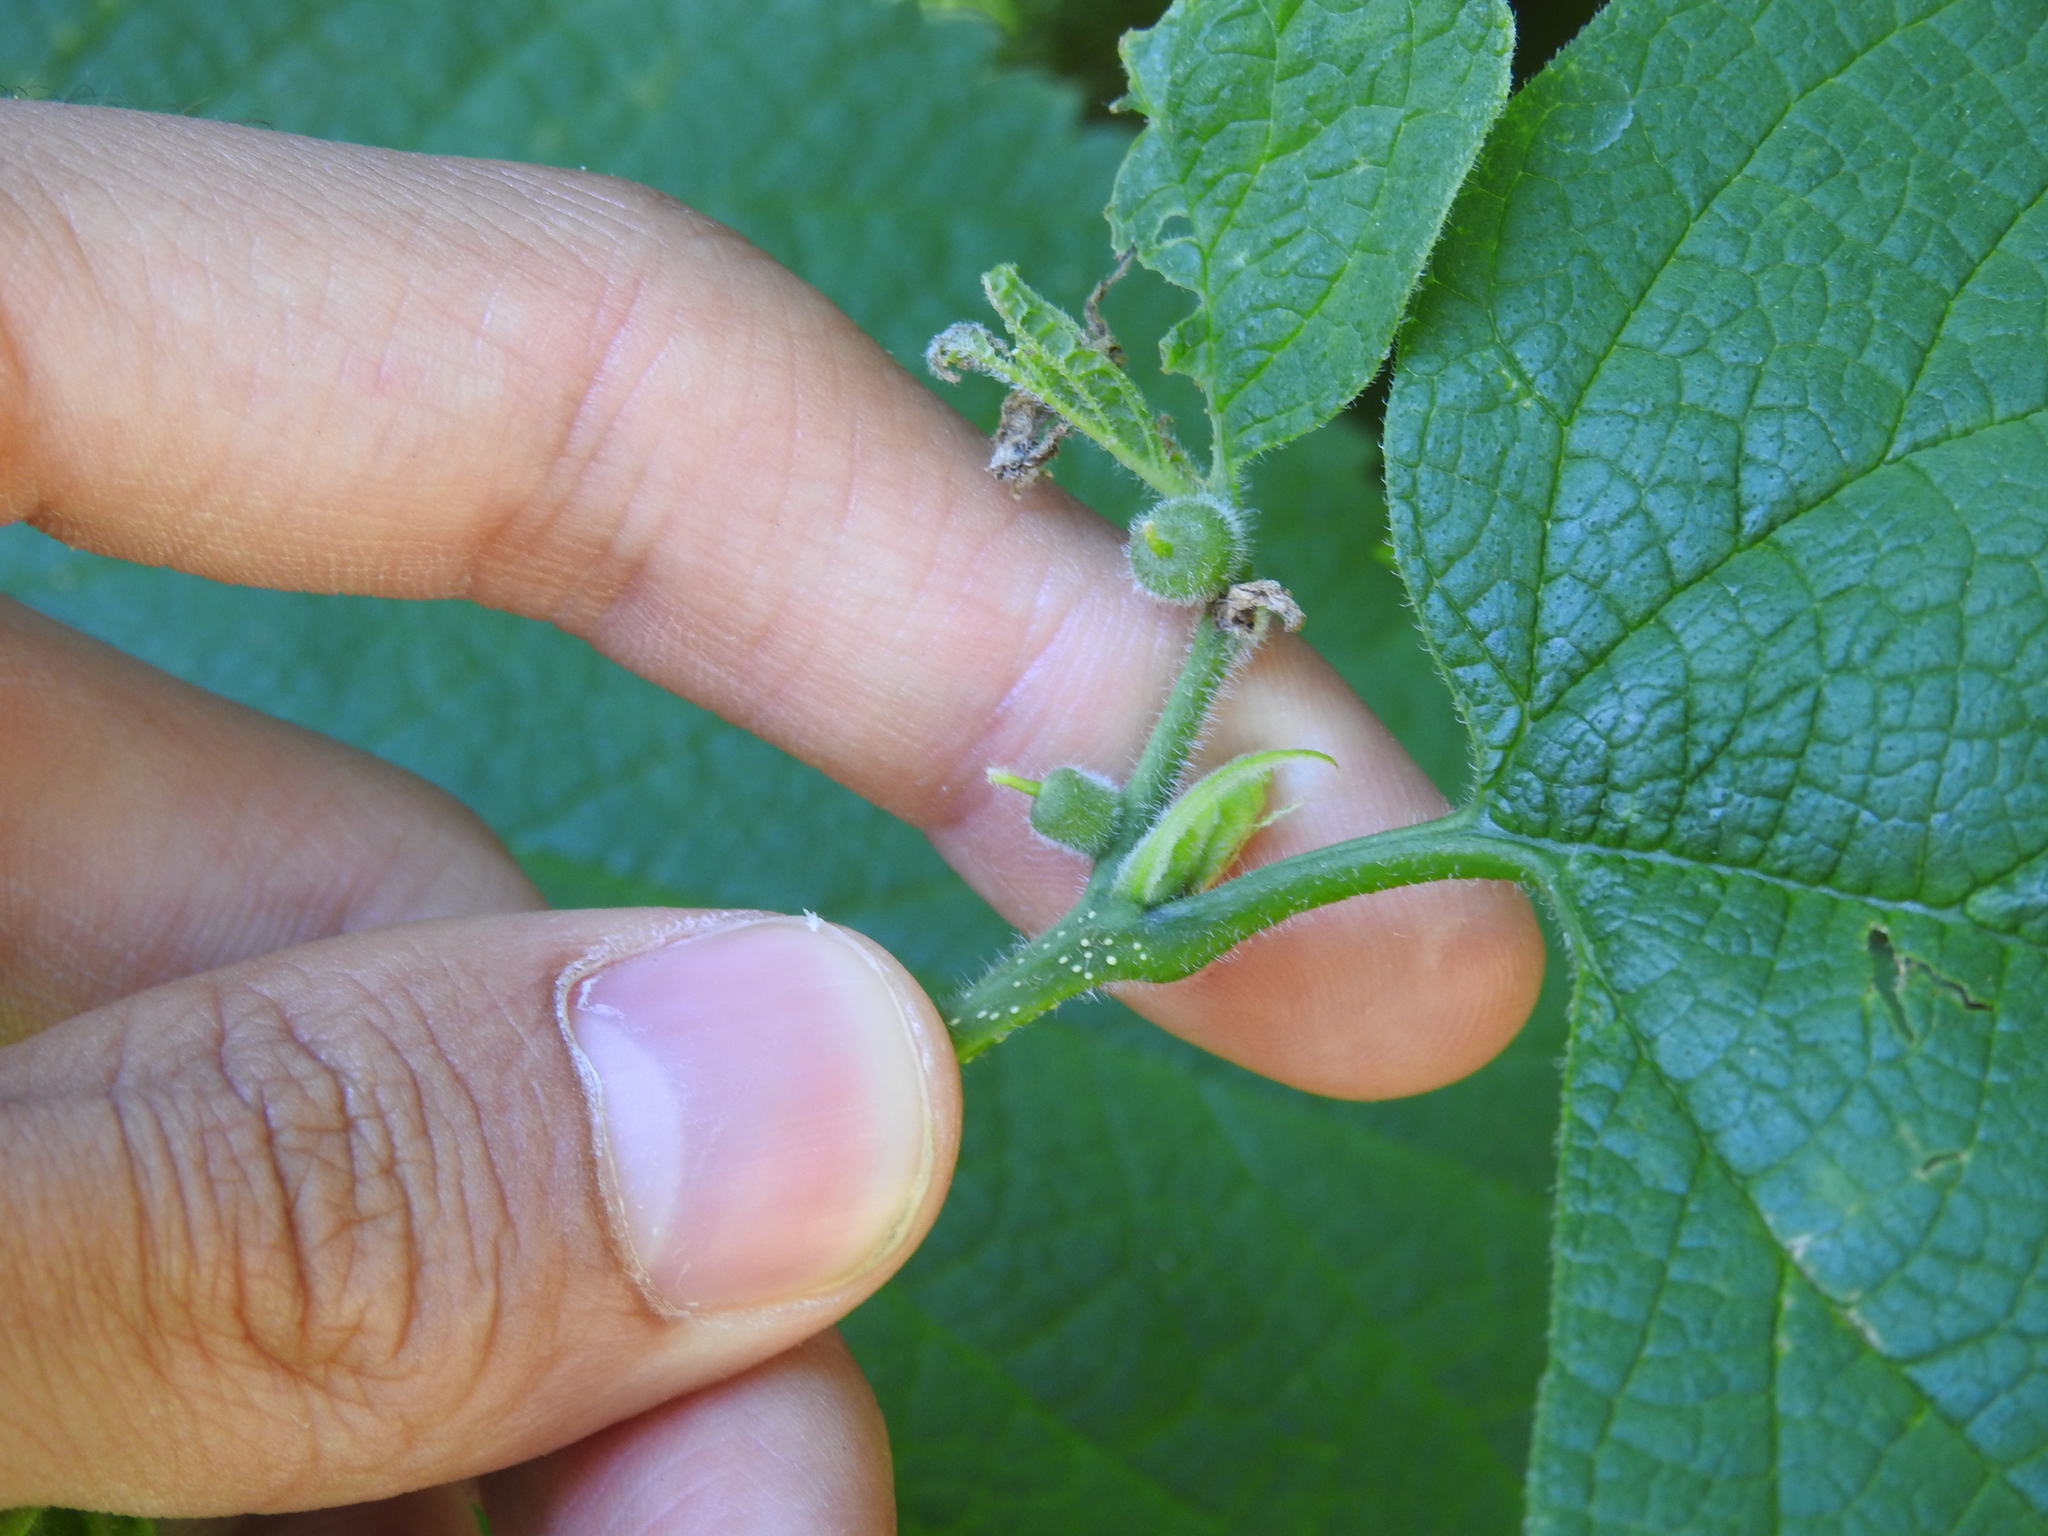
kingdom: Animalia
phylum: Arthropoda
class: Insecta
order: Diptera
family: Cecidomyiidae
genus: Celticecis
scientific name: Celticecis celtiphyllia
